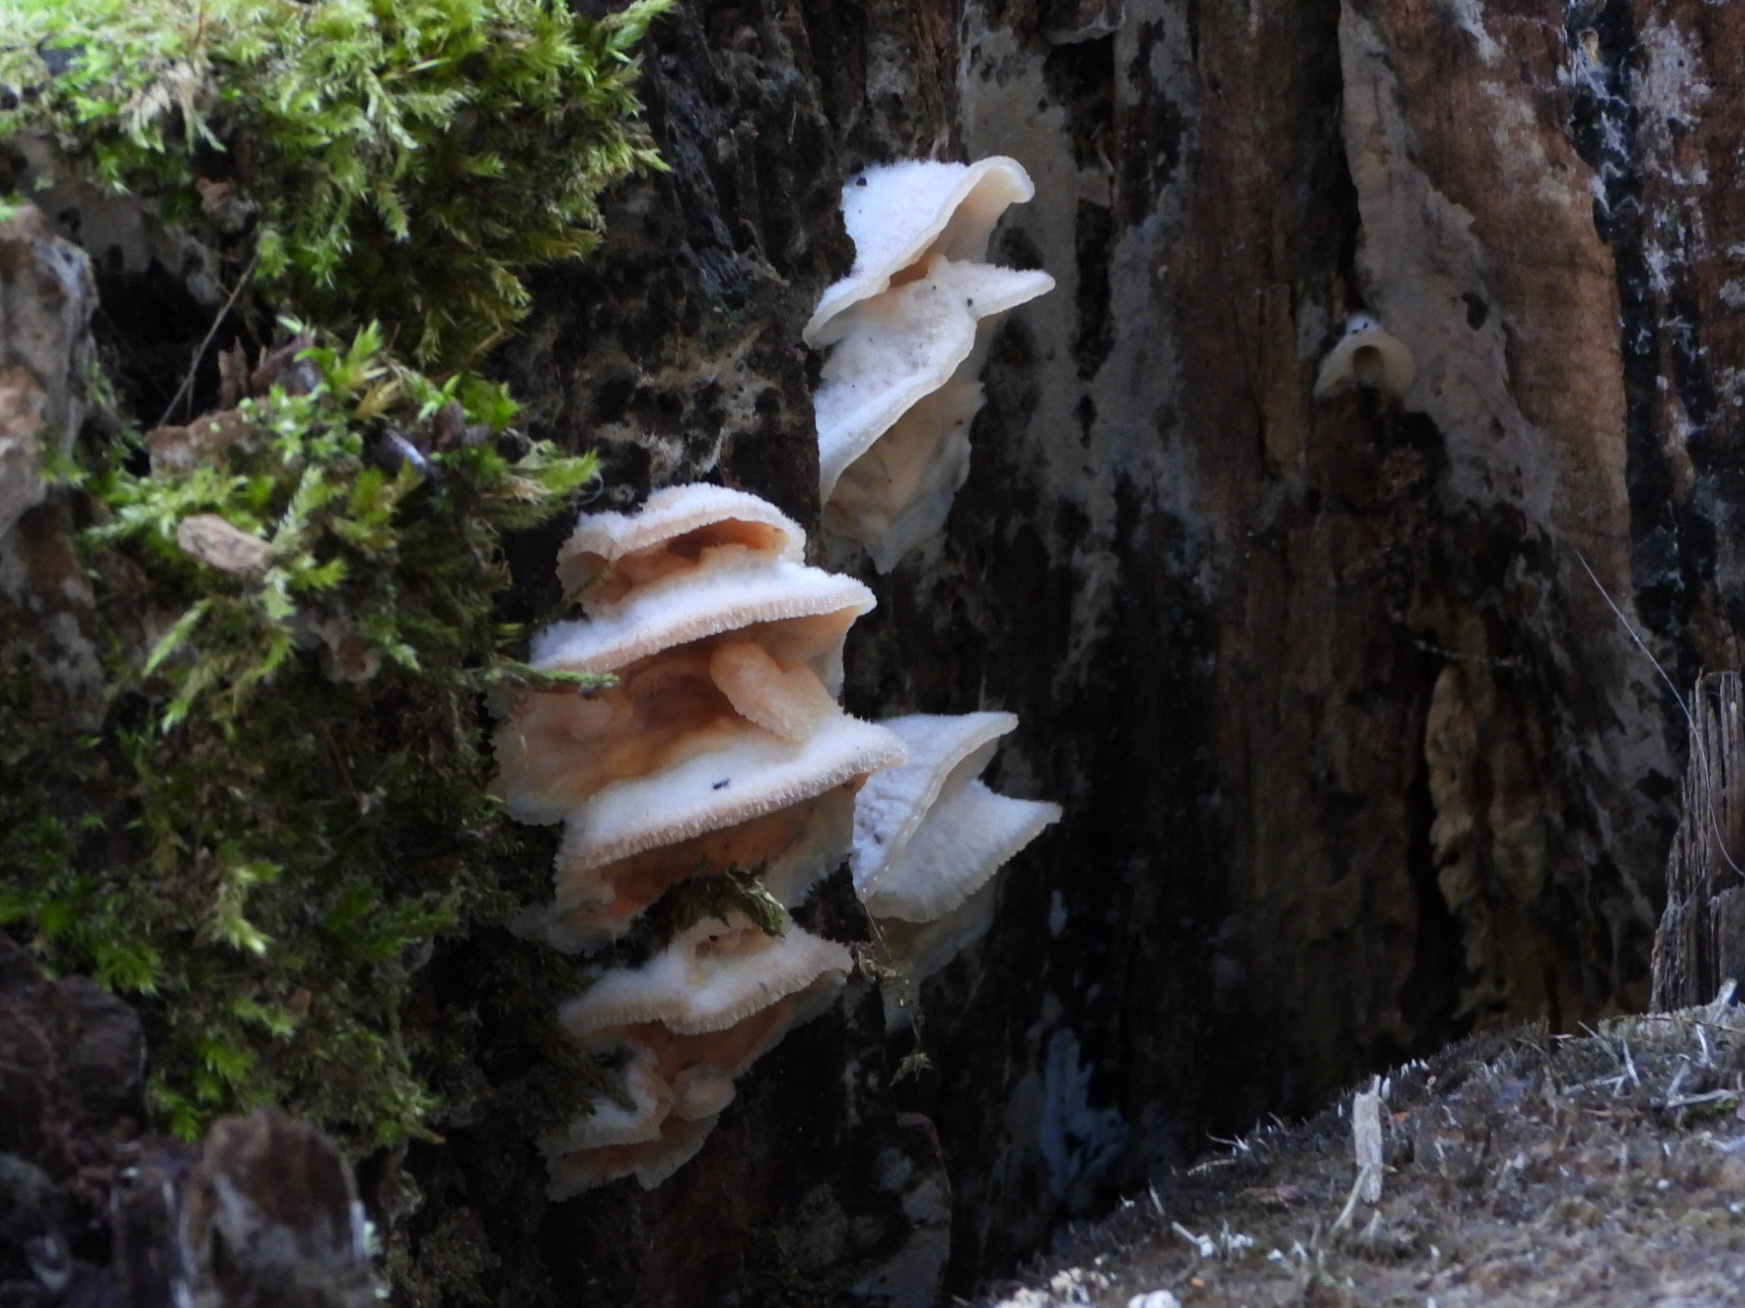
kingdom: Fungi
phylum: Basidiomycota
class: Agaricomycetes
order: Polyporales
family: Meruliaceae
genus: Phlebia
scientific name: Phlebia tremellosa
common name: Jelly rot
